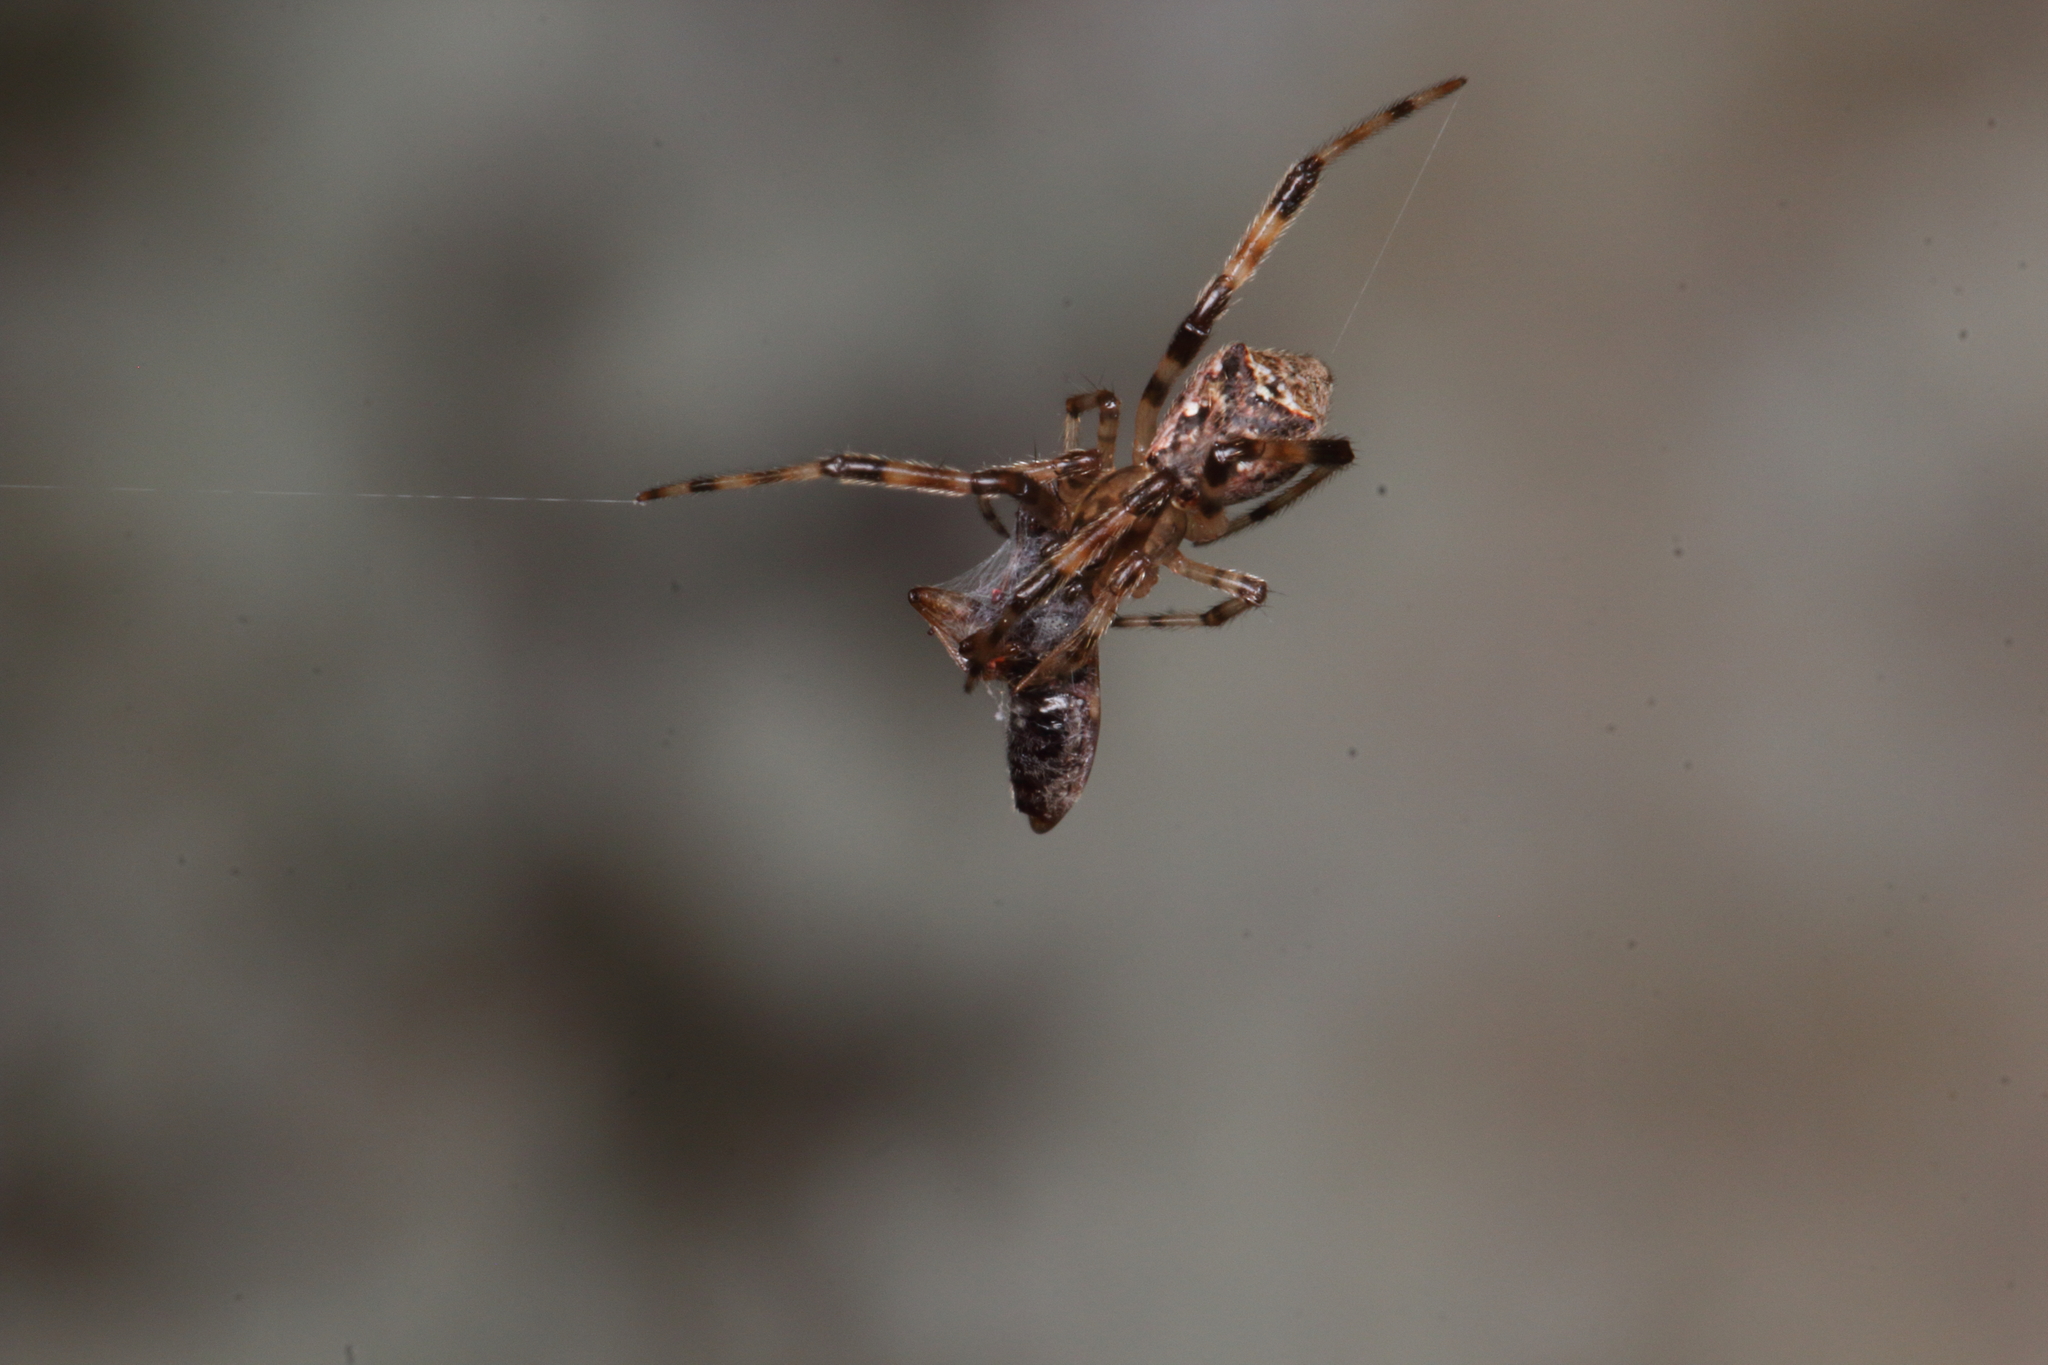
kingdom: Animalia
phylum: Arthropoda
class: Arachnida
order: Araneae
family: Theridiidae
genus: Episinus
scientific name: Episinus antipodianus
